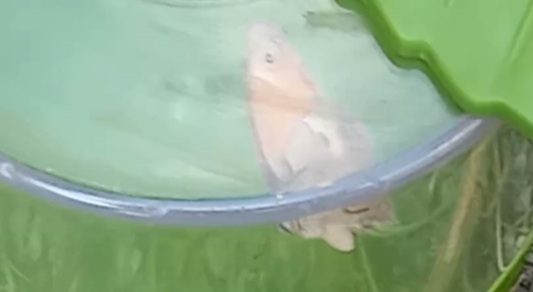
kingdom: Animalia
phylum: Arthropoda
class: Insecta
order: Lepidoptera
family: Nymphalidae
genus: Coenonympha
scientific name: Coenonympha pamphilus
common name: Small heath
